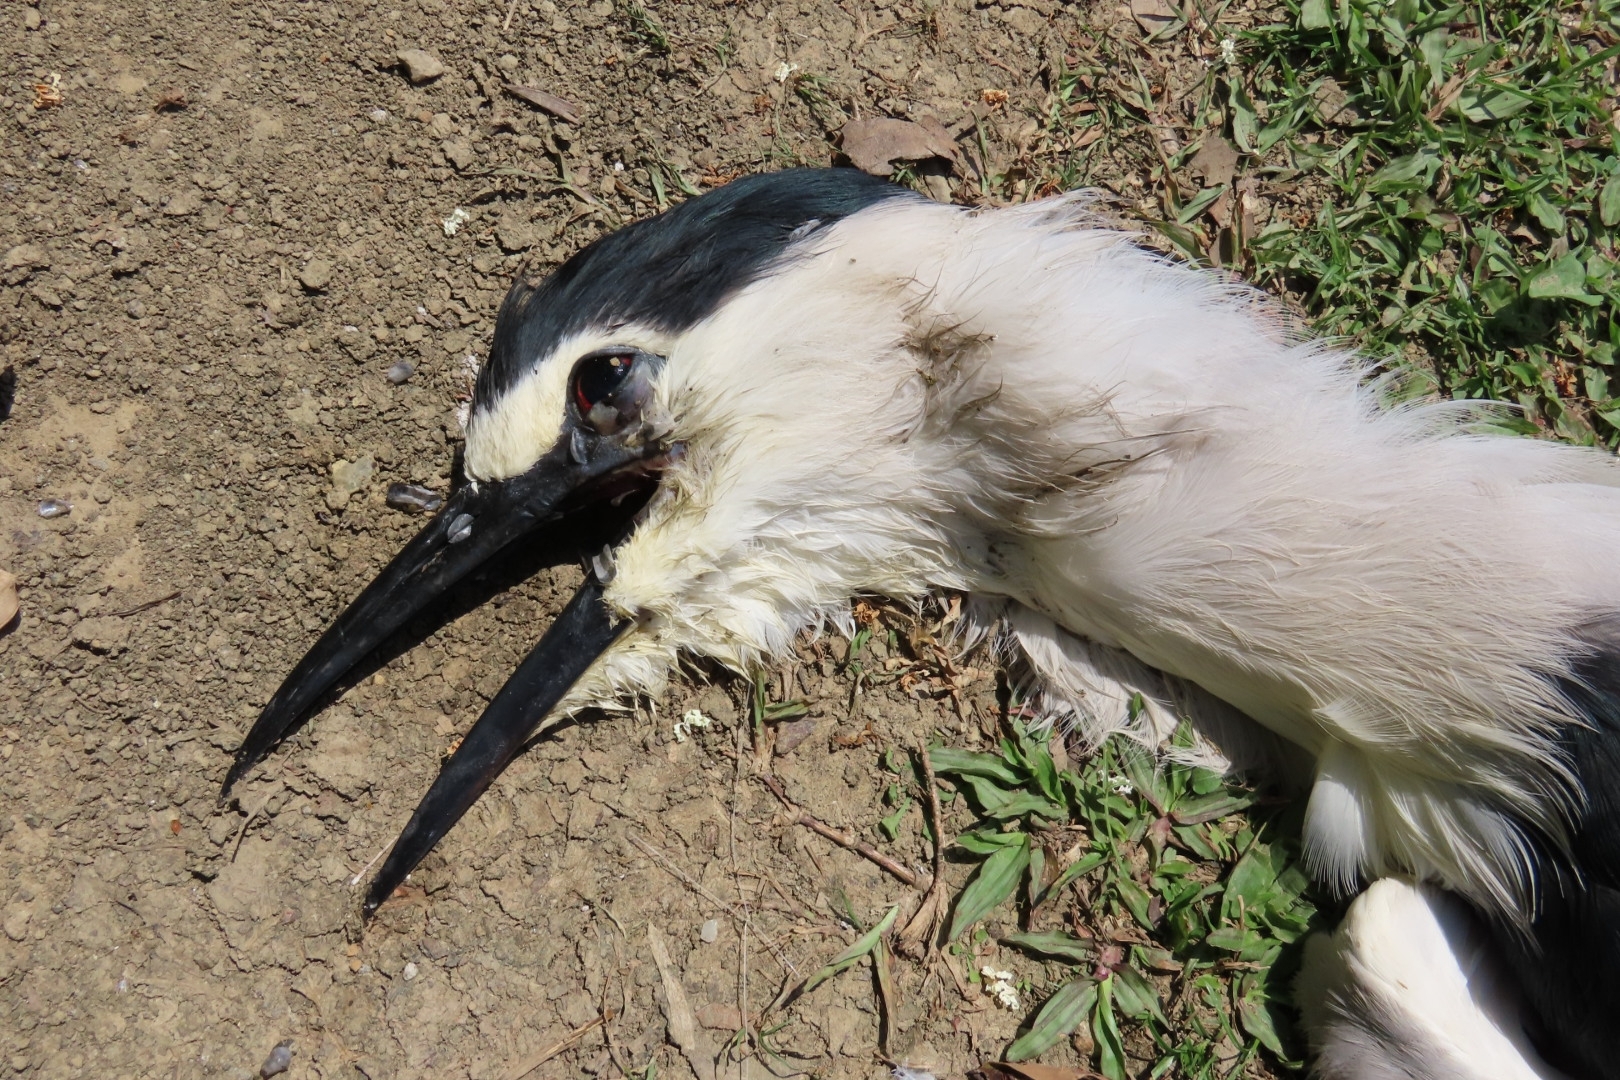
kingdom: Animalia
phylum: Chordata
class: Aves
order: Pelecaniformes
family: Ardeidae
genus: Nycticorax
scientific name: Nycticorax nycticorax
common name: Black-crowned night heron
